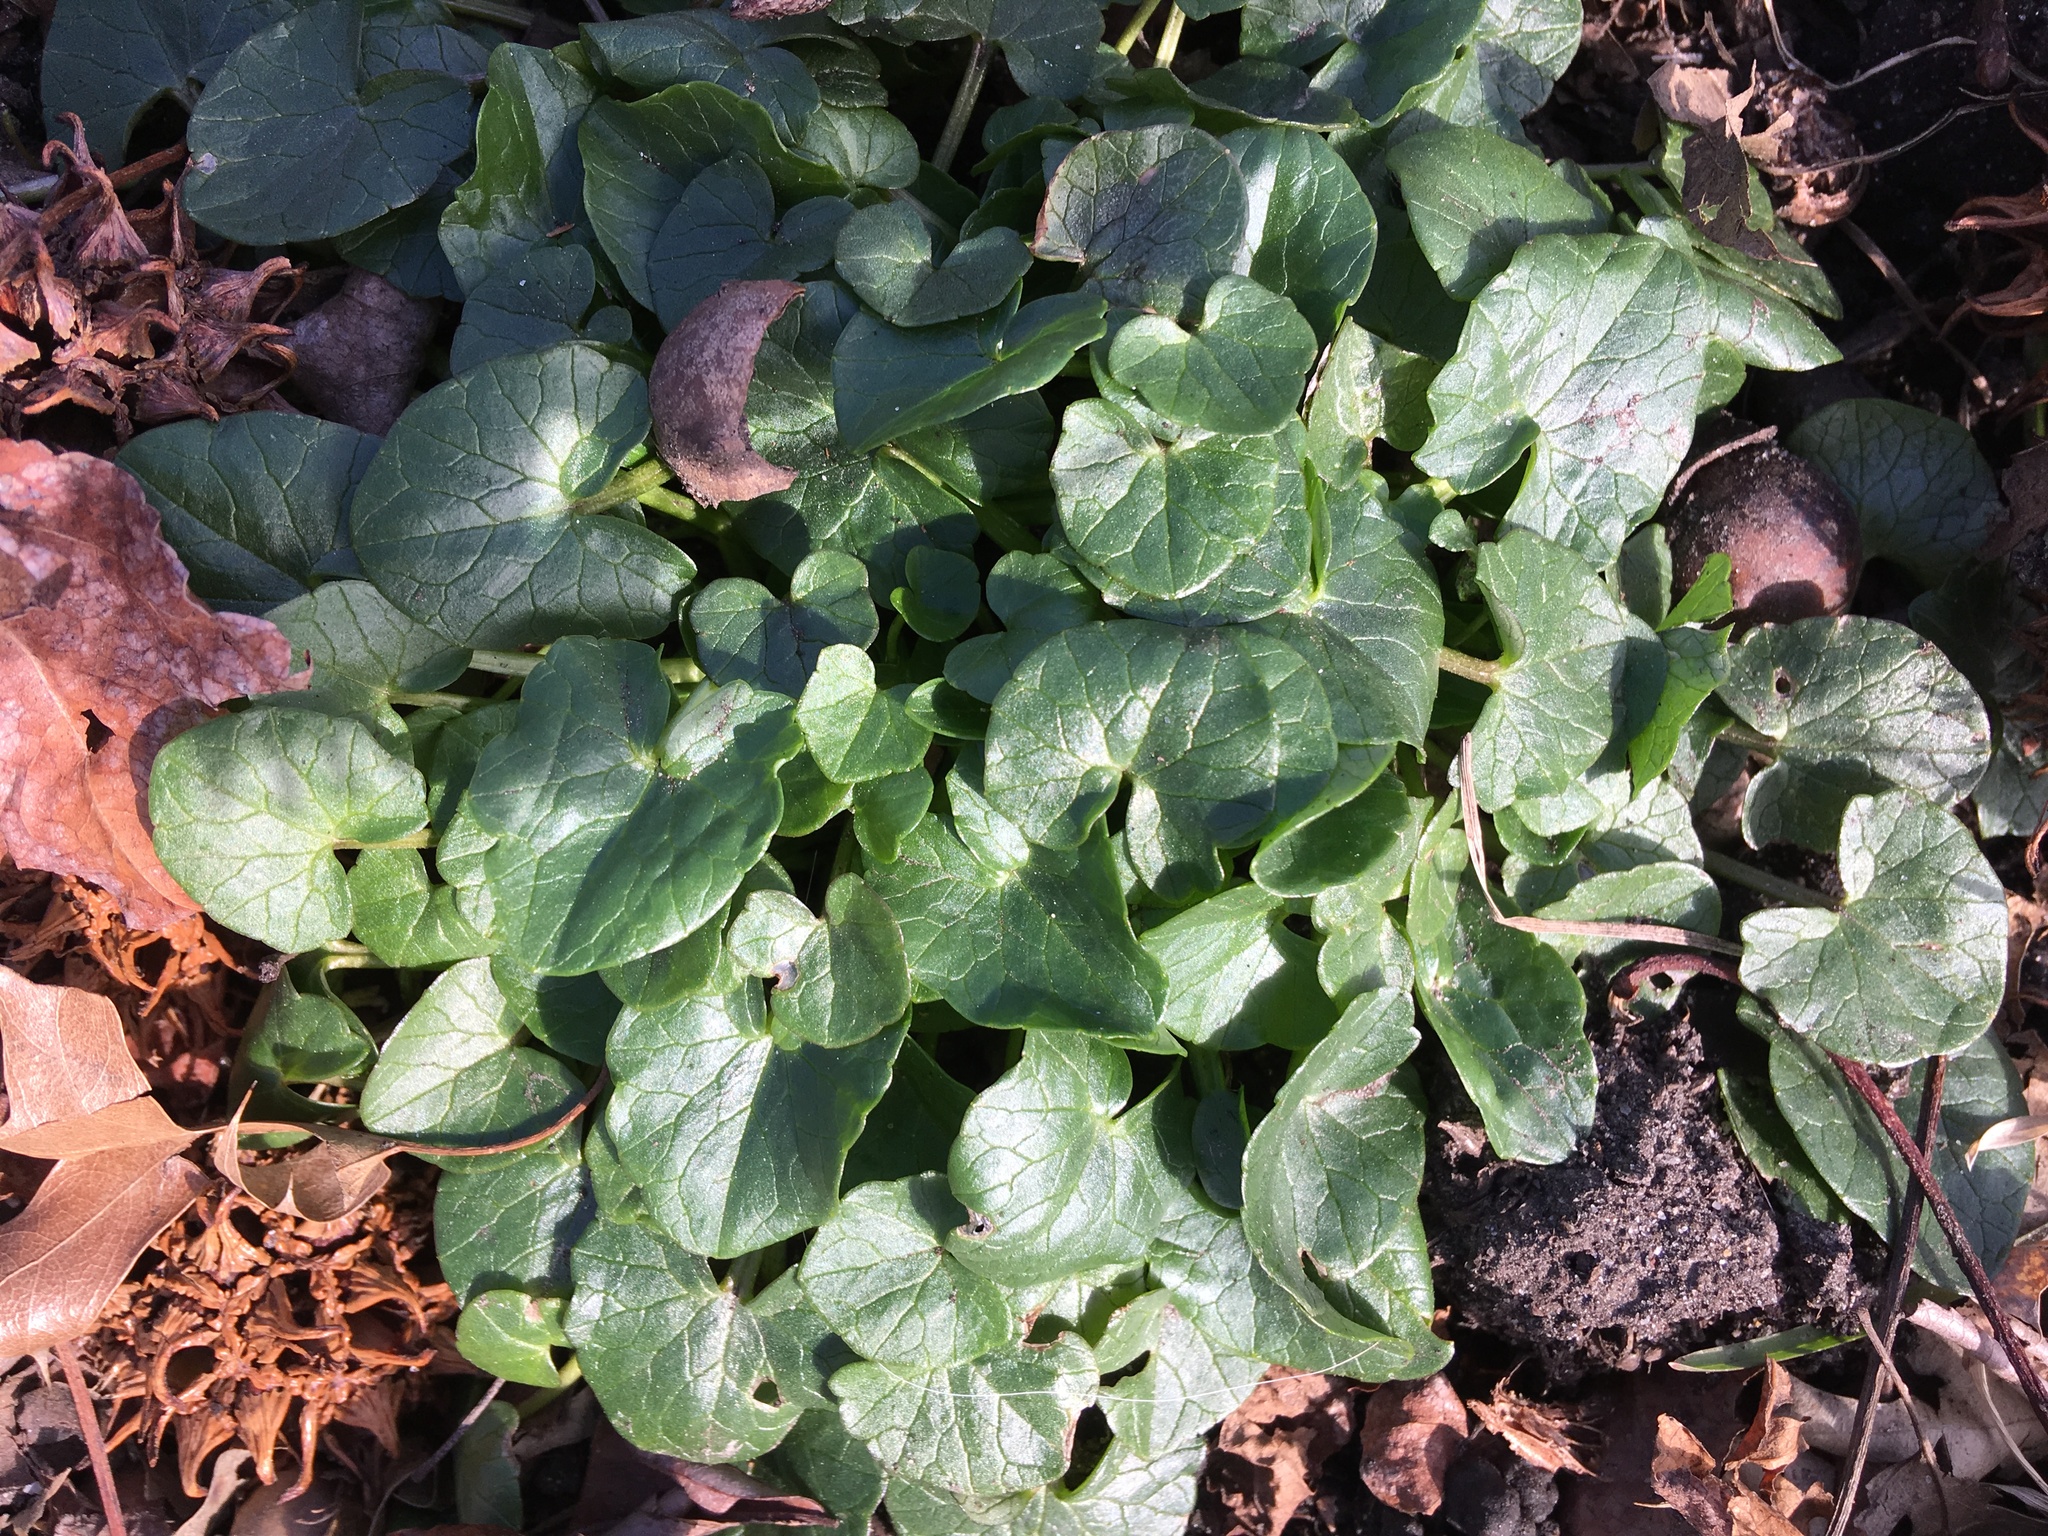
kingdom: Plantae
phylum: Tracheophyta
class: Magnoliopsida
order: Ranunculales
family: Ranunculaceae
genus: Ficaria
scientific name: Ficaria verna
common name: Lesser celandine
